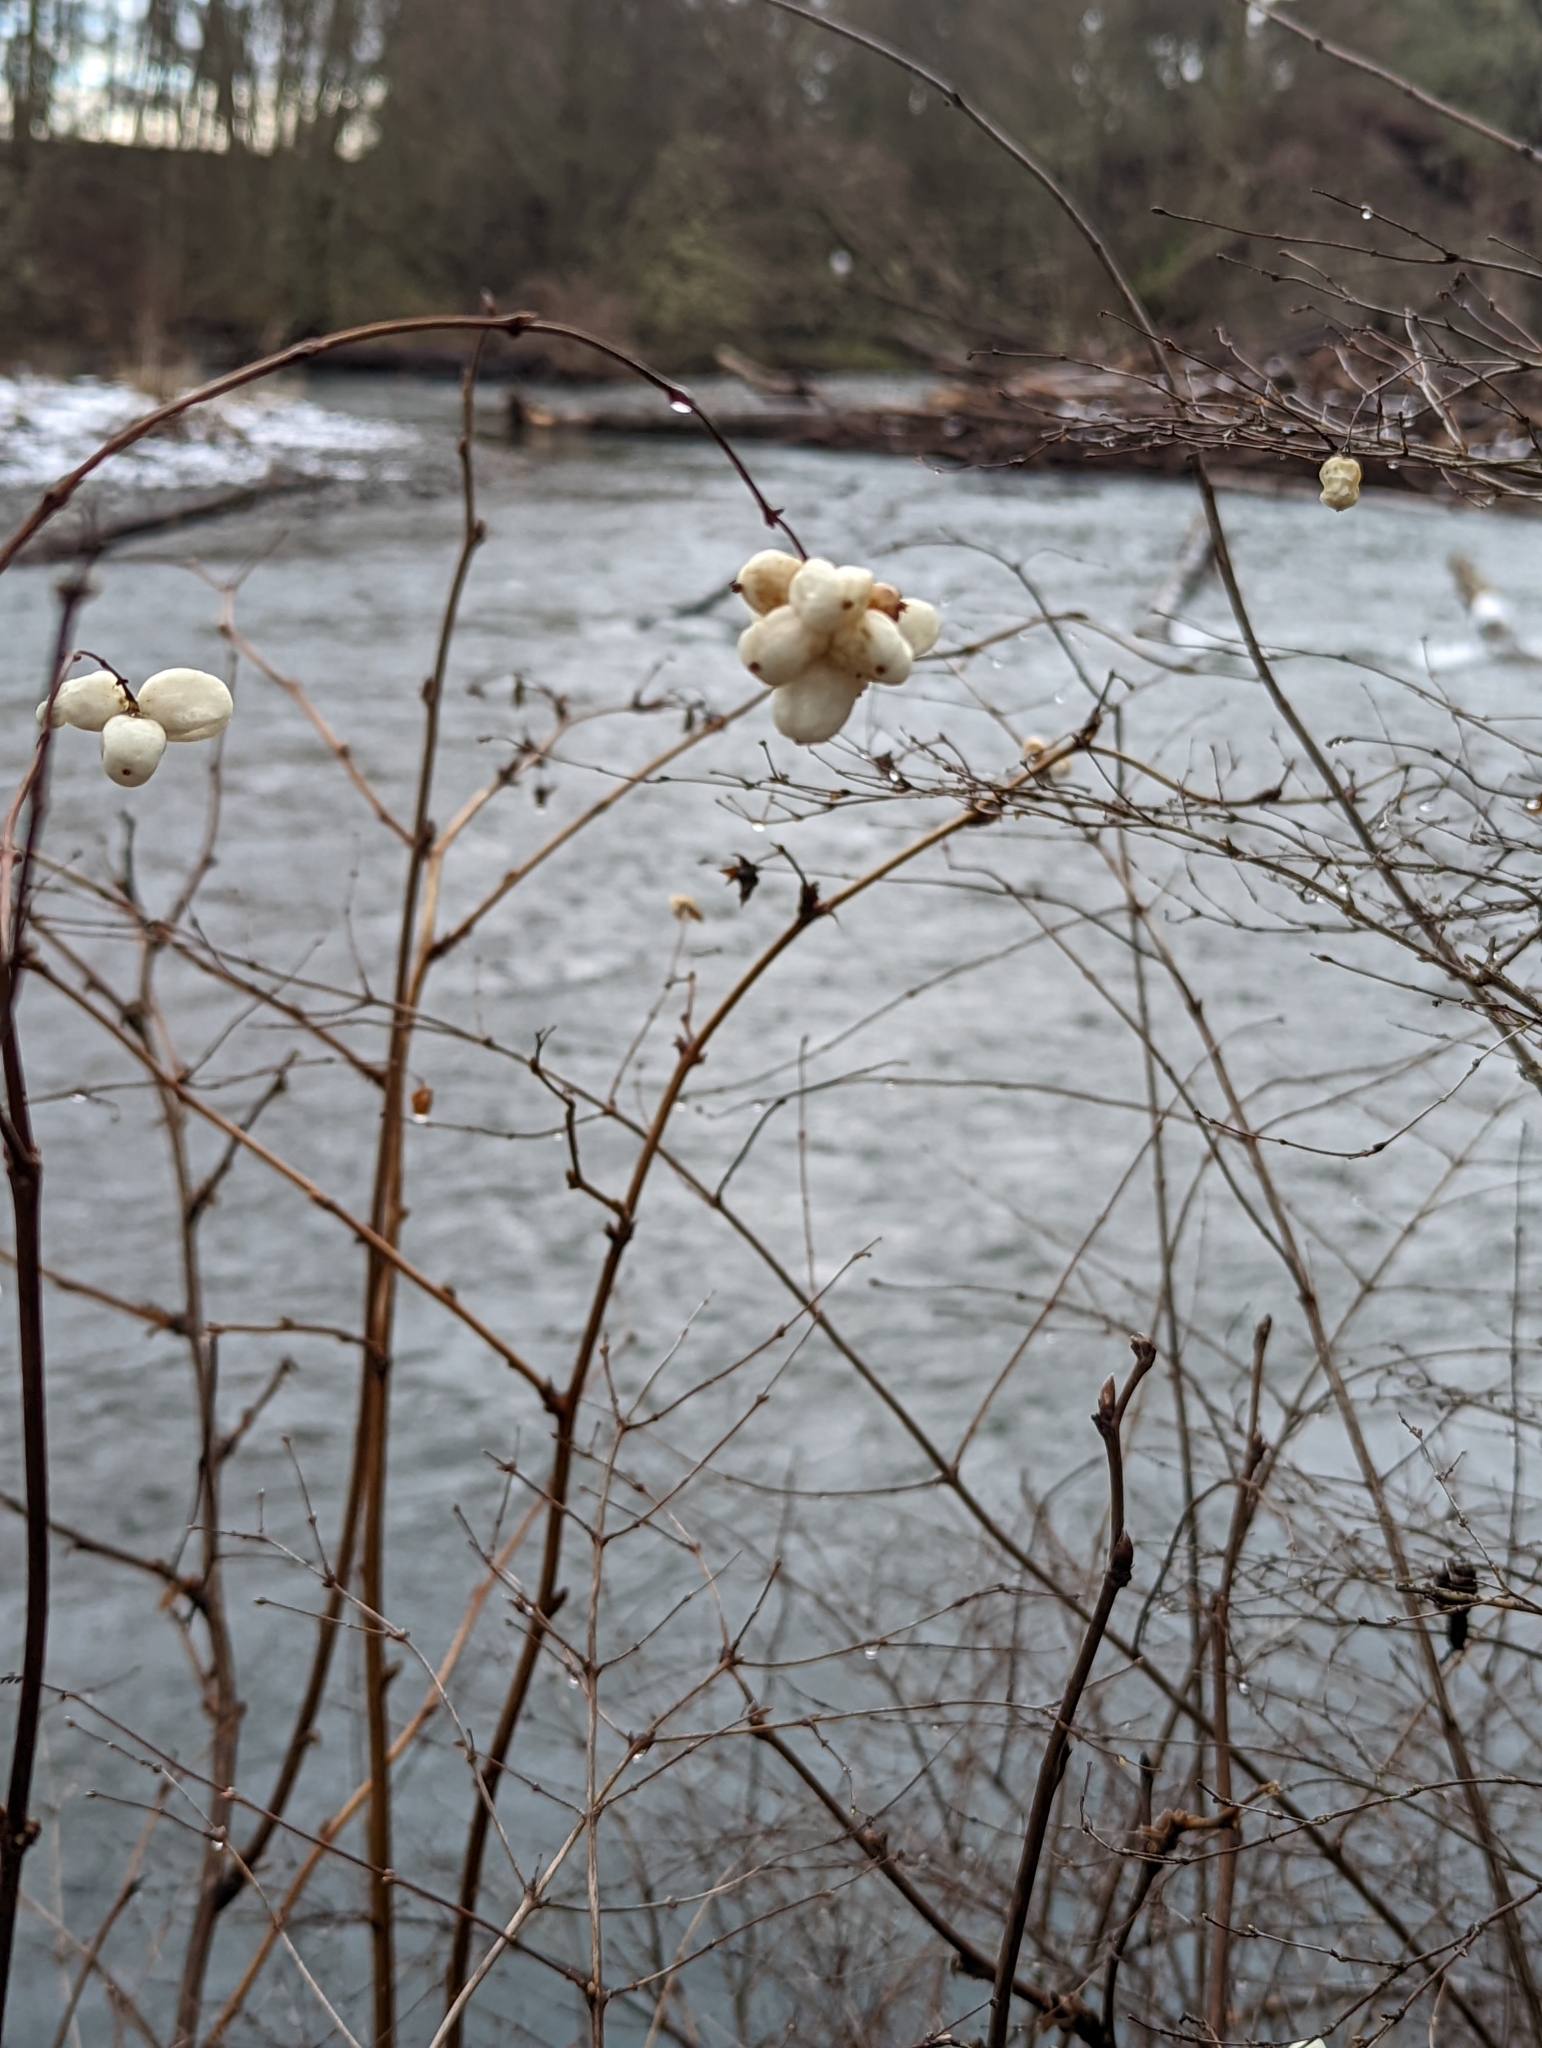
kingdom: Plantae
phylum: Tracheophyta
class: Magnoliopsida
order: Dipsacales
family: Caprifoliaceae
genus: Symphoricarpos
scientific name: Symphoricarpos albus
